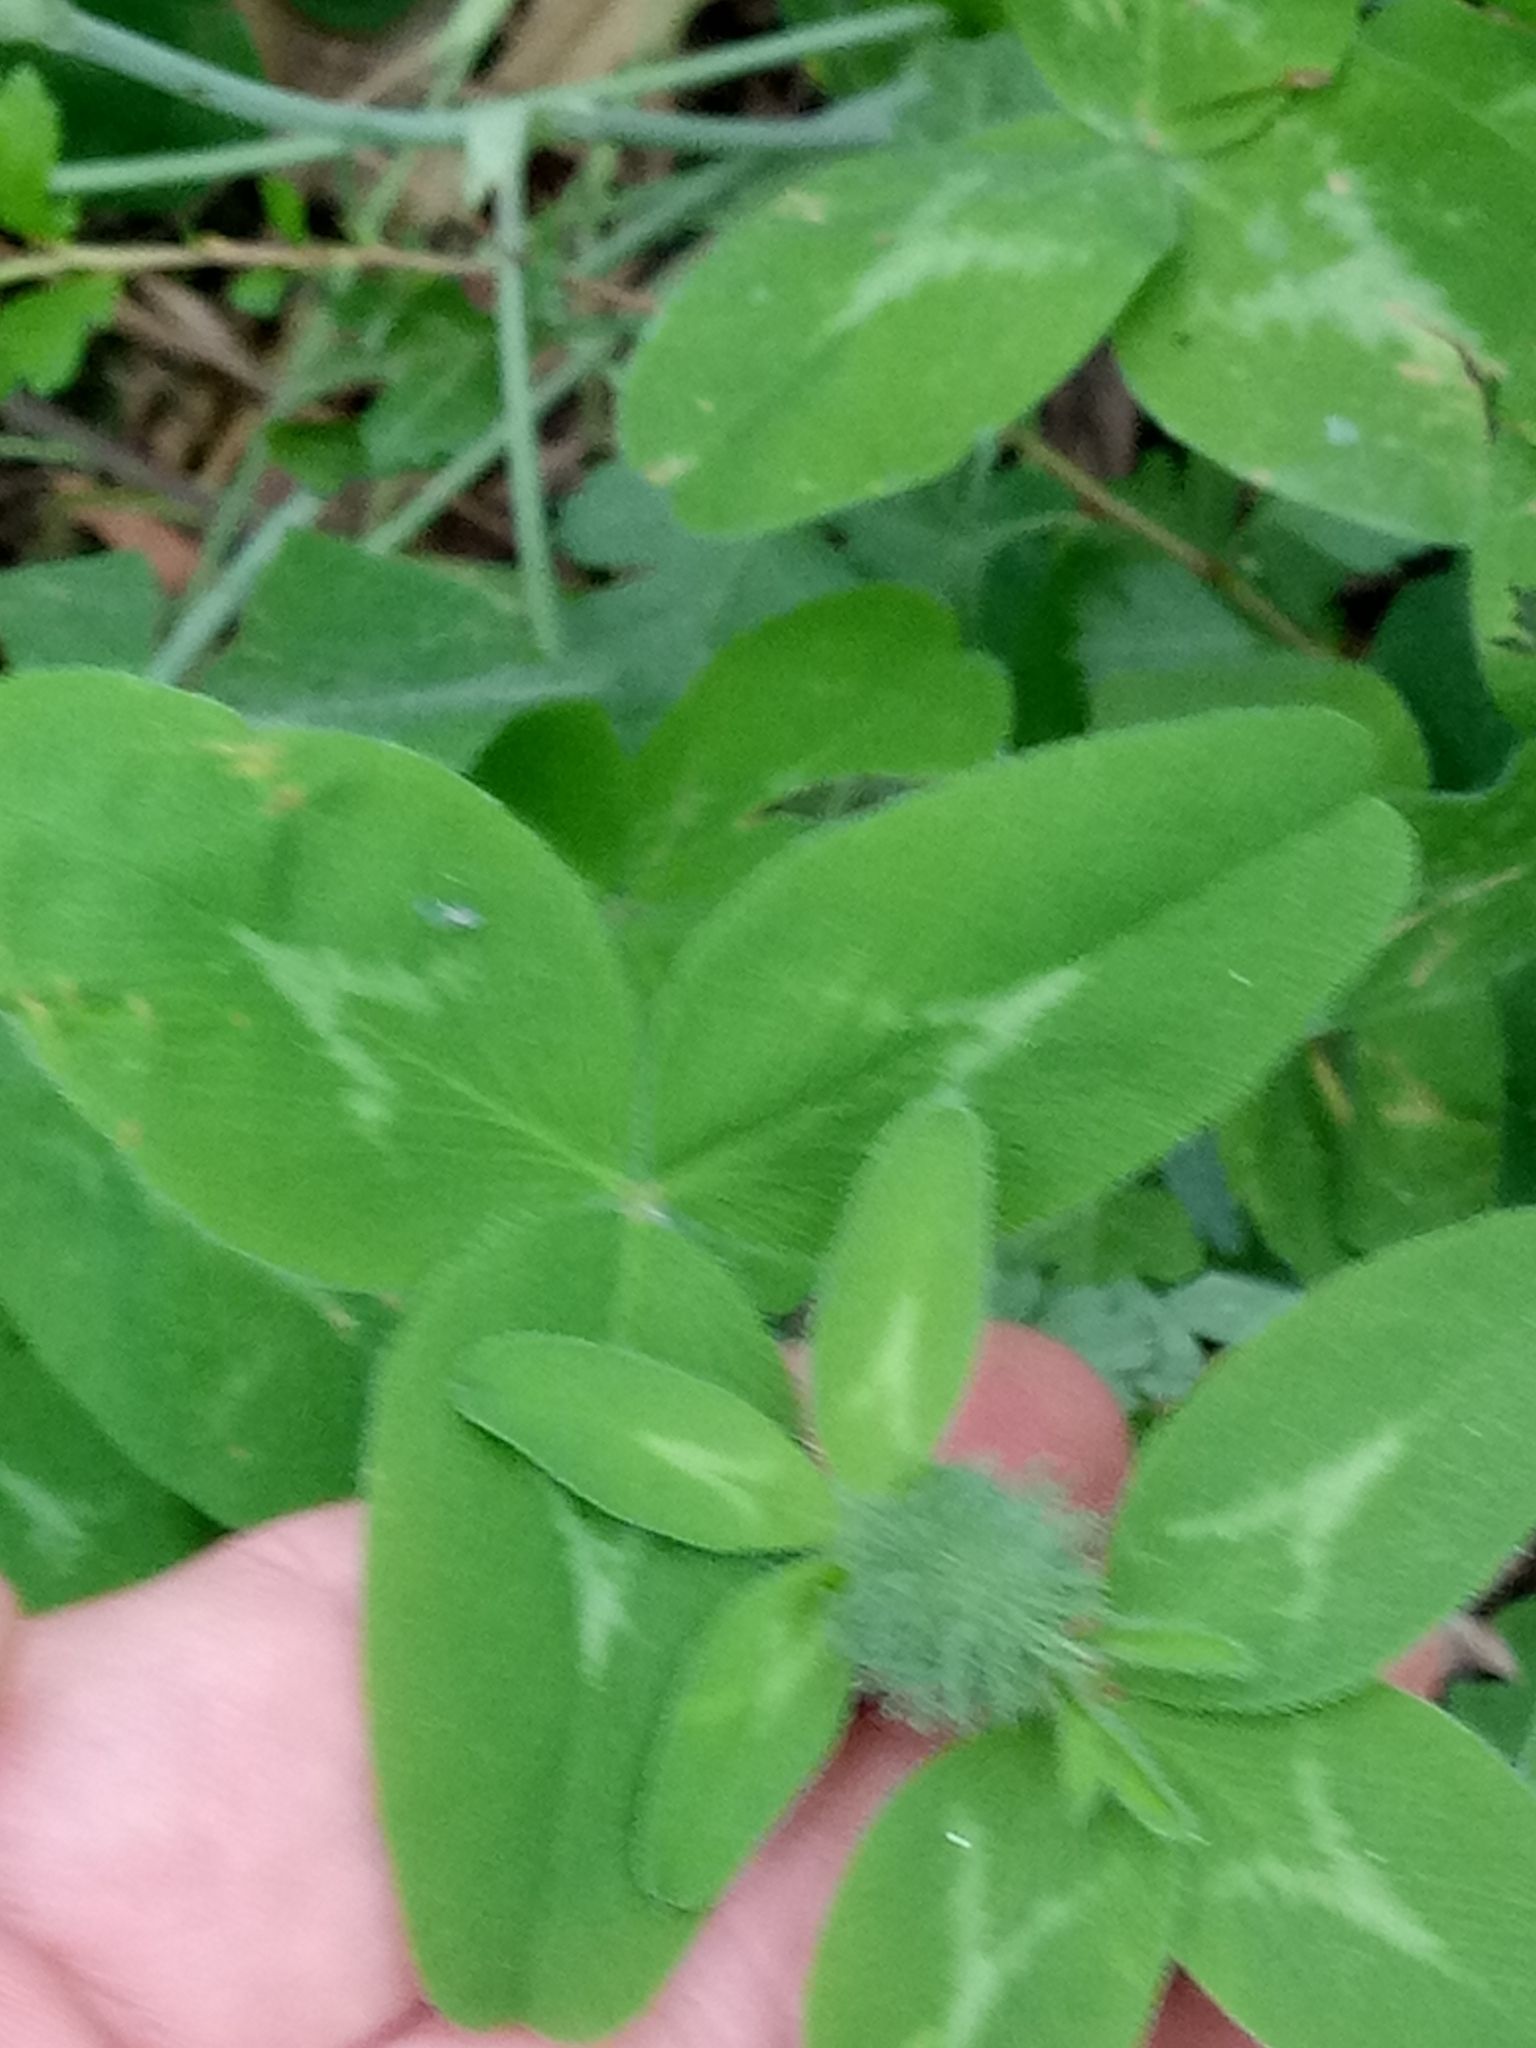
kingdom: Plantae
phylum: Tracheophyta
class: Magnoliopsida
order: Fabales
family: Fabaceae
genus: Trifolium
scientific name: Trifolium pratense
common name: Red clover
